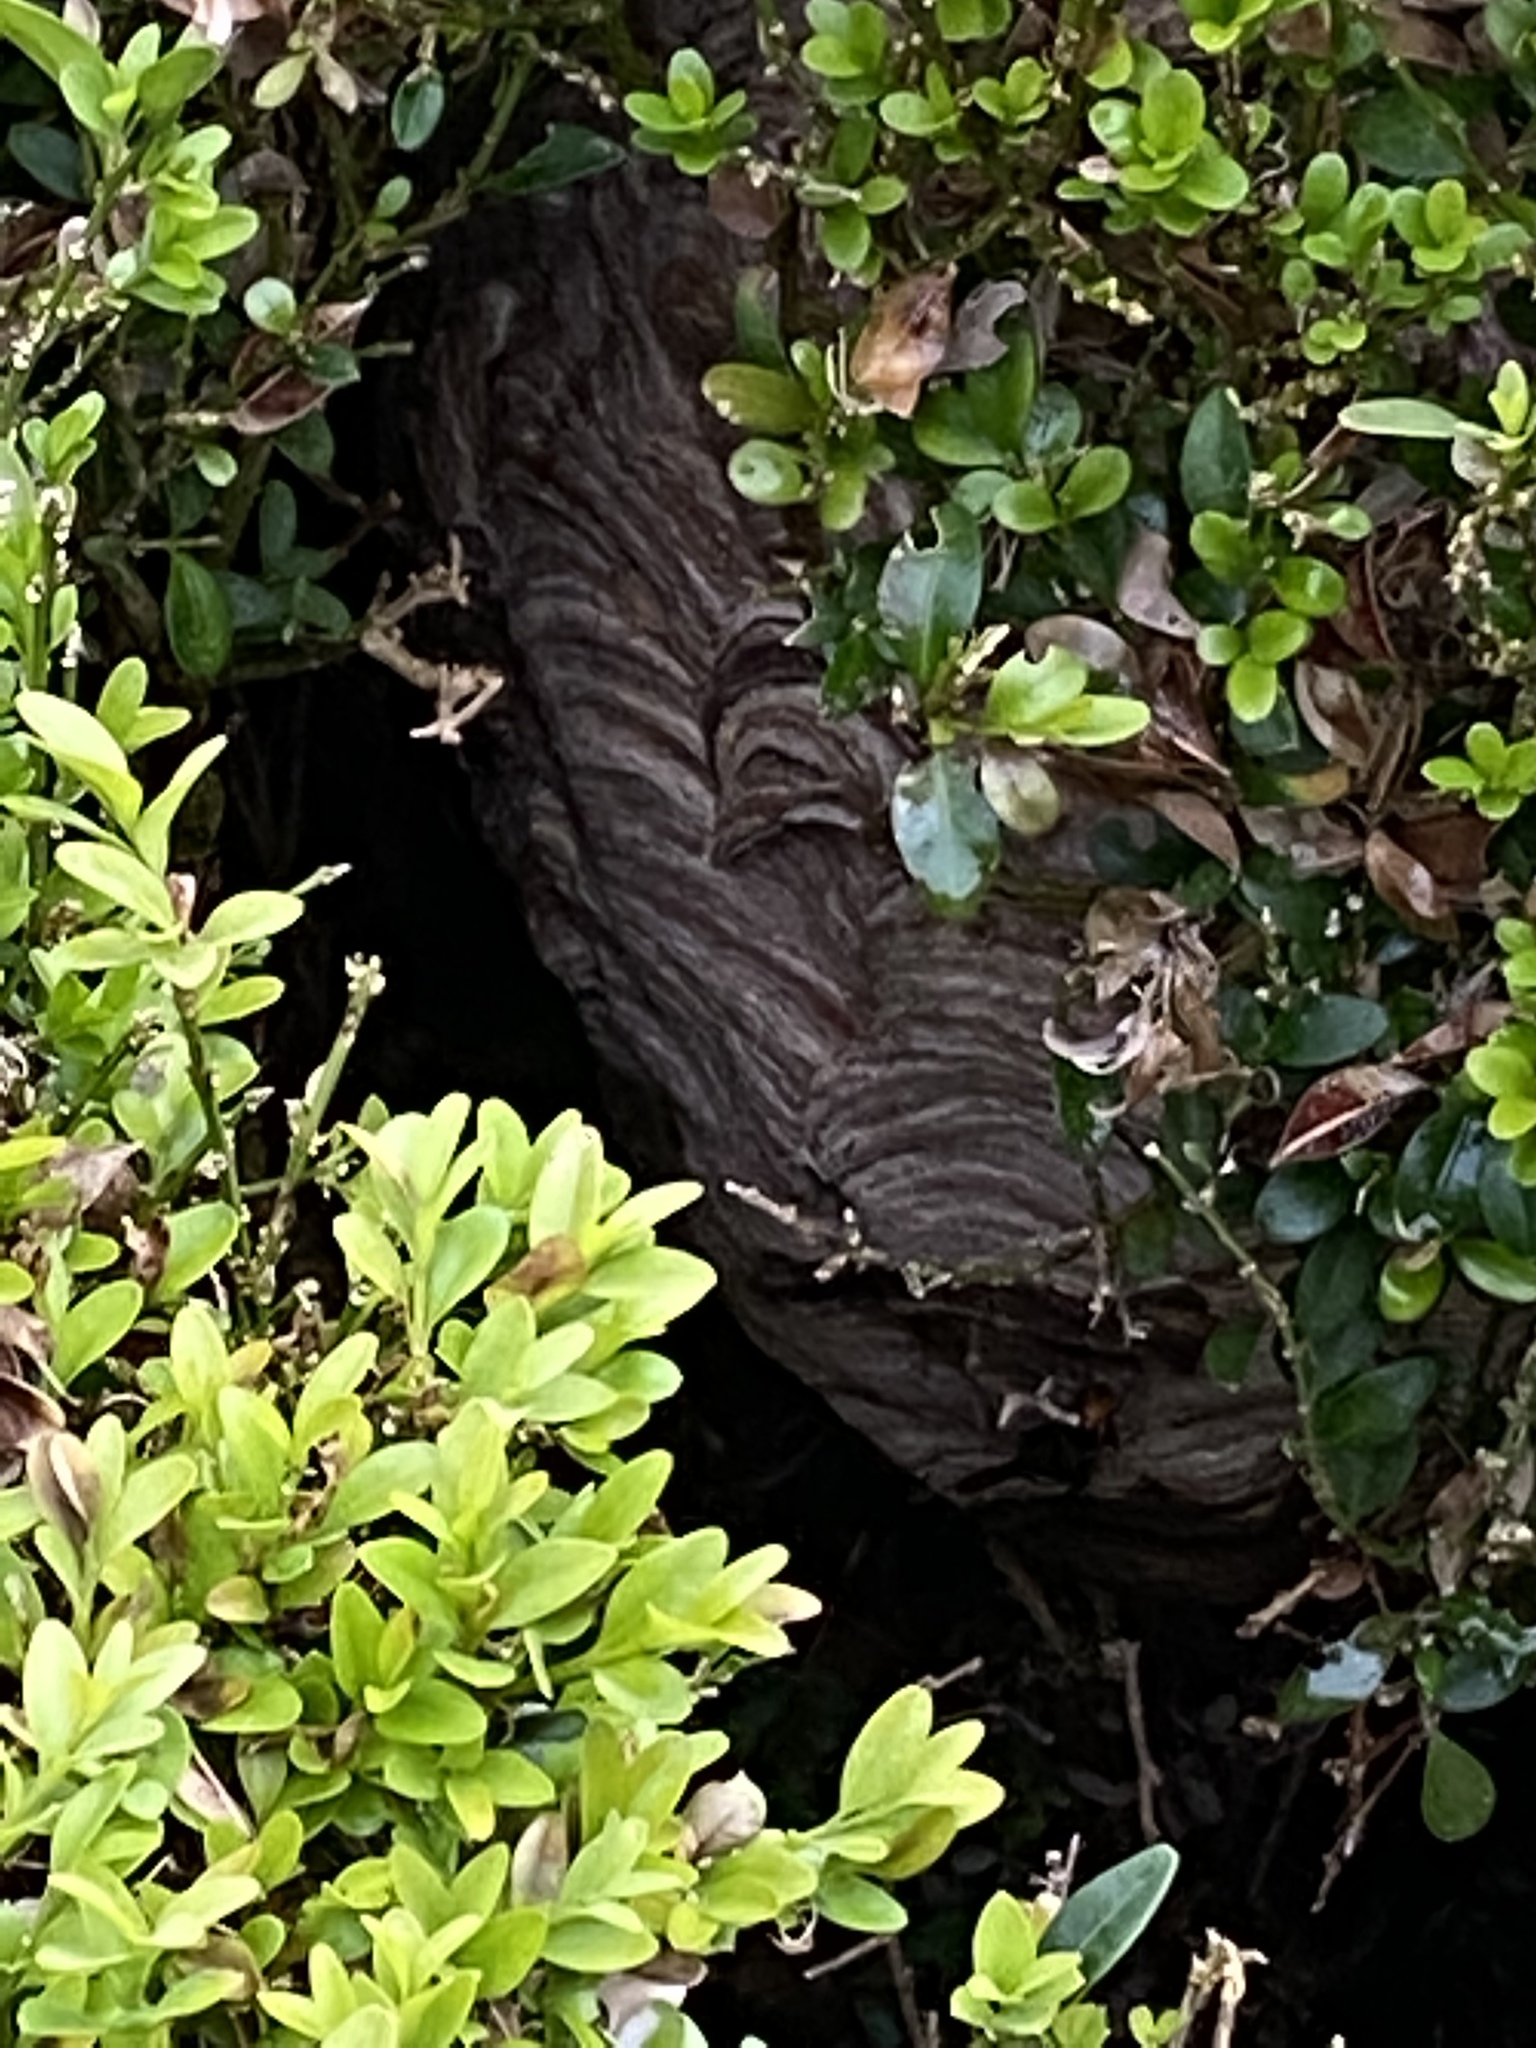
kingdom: Animalia
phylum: Arthropoda
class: Insecta
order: Hymenoptera
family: Vespidae
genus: Vespa
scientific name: Vespa velutina
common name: Asian hornet
